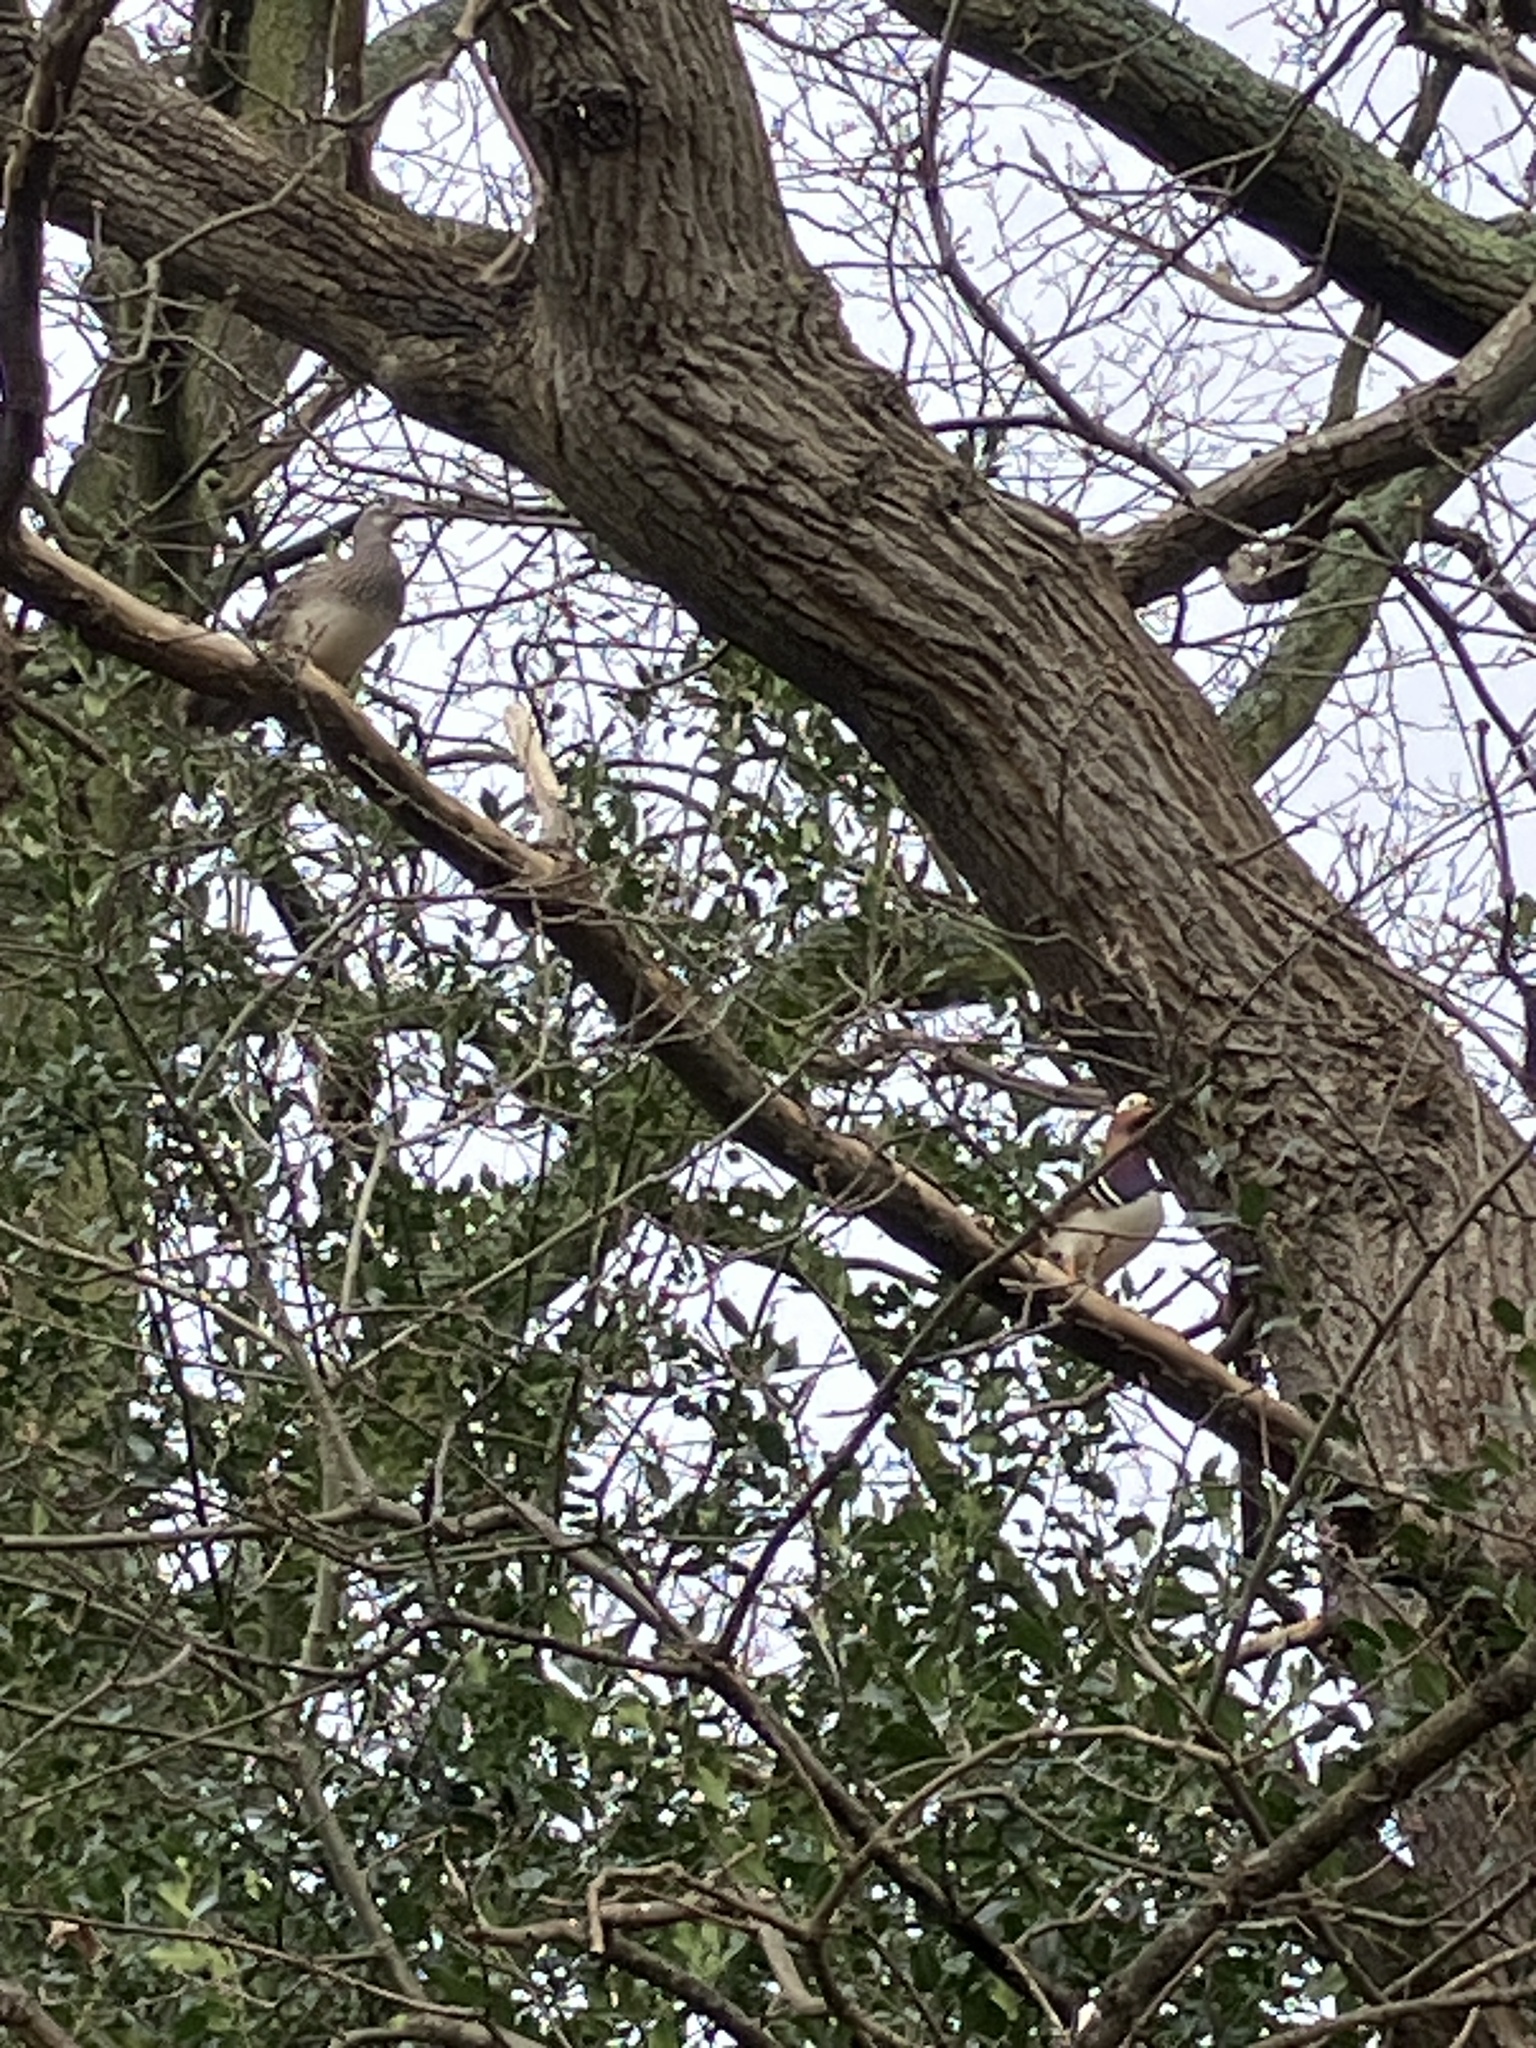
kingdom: Animalia
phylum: Chordata
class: Aves
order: Anseriformes
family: Anatidae
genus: Aix
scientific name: Aix galericulata
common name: Mandarin duck
